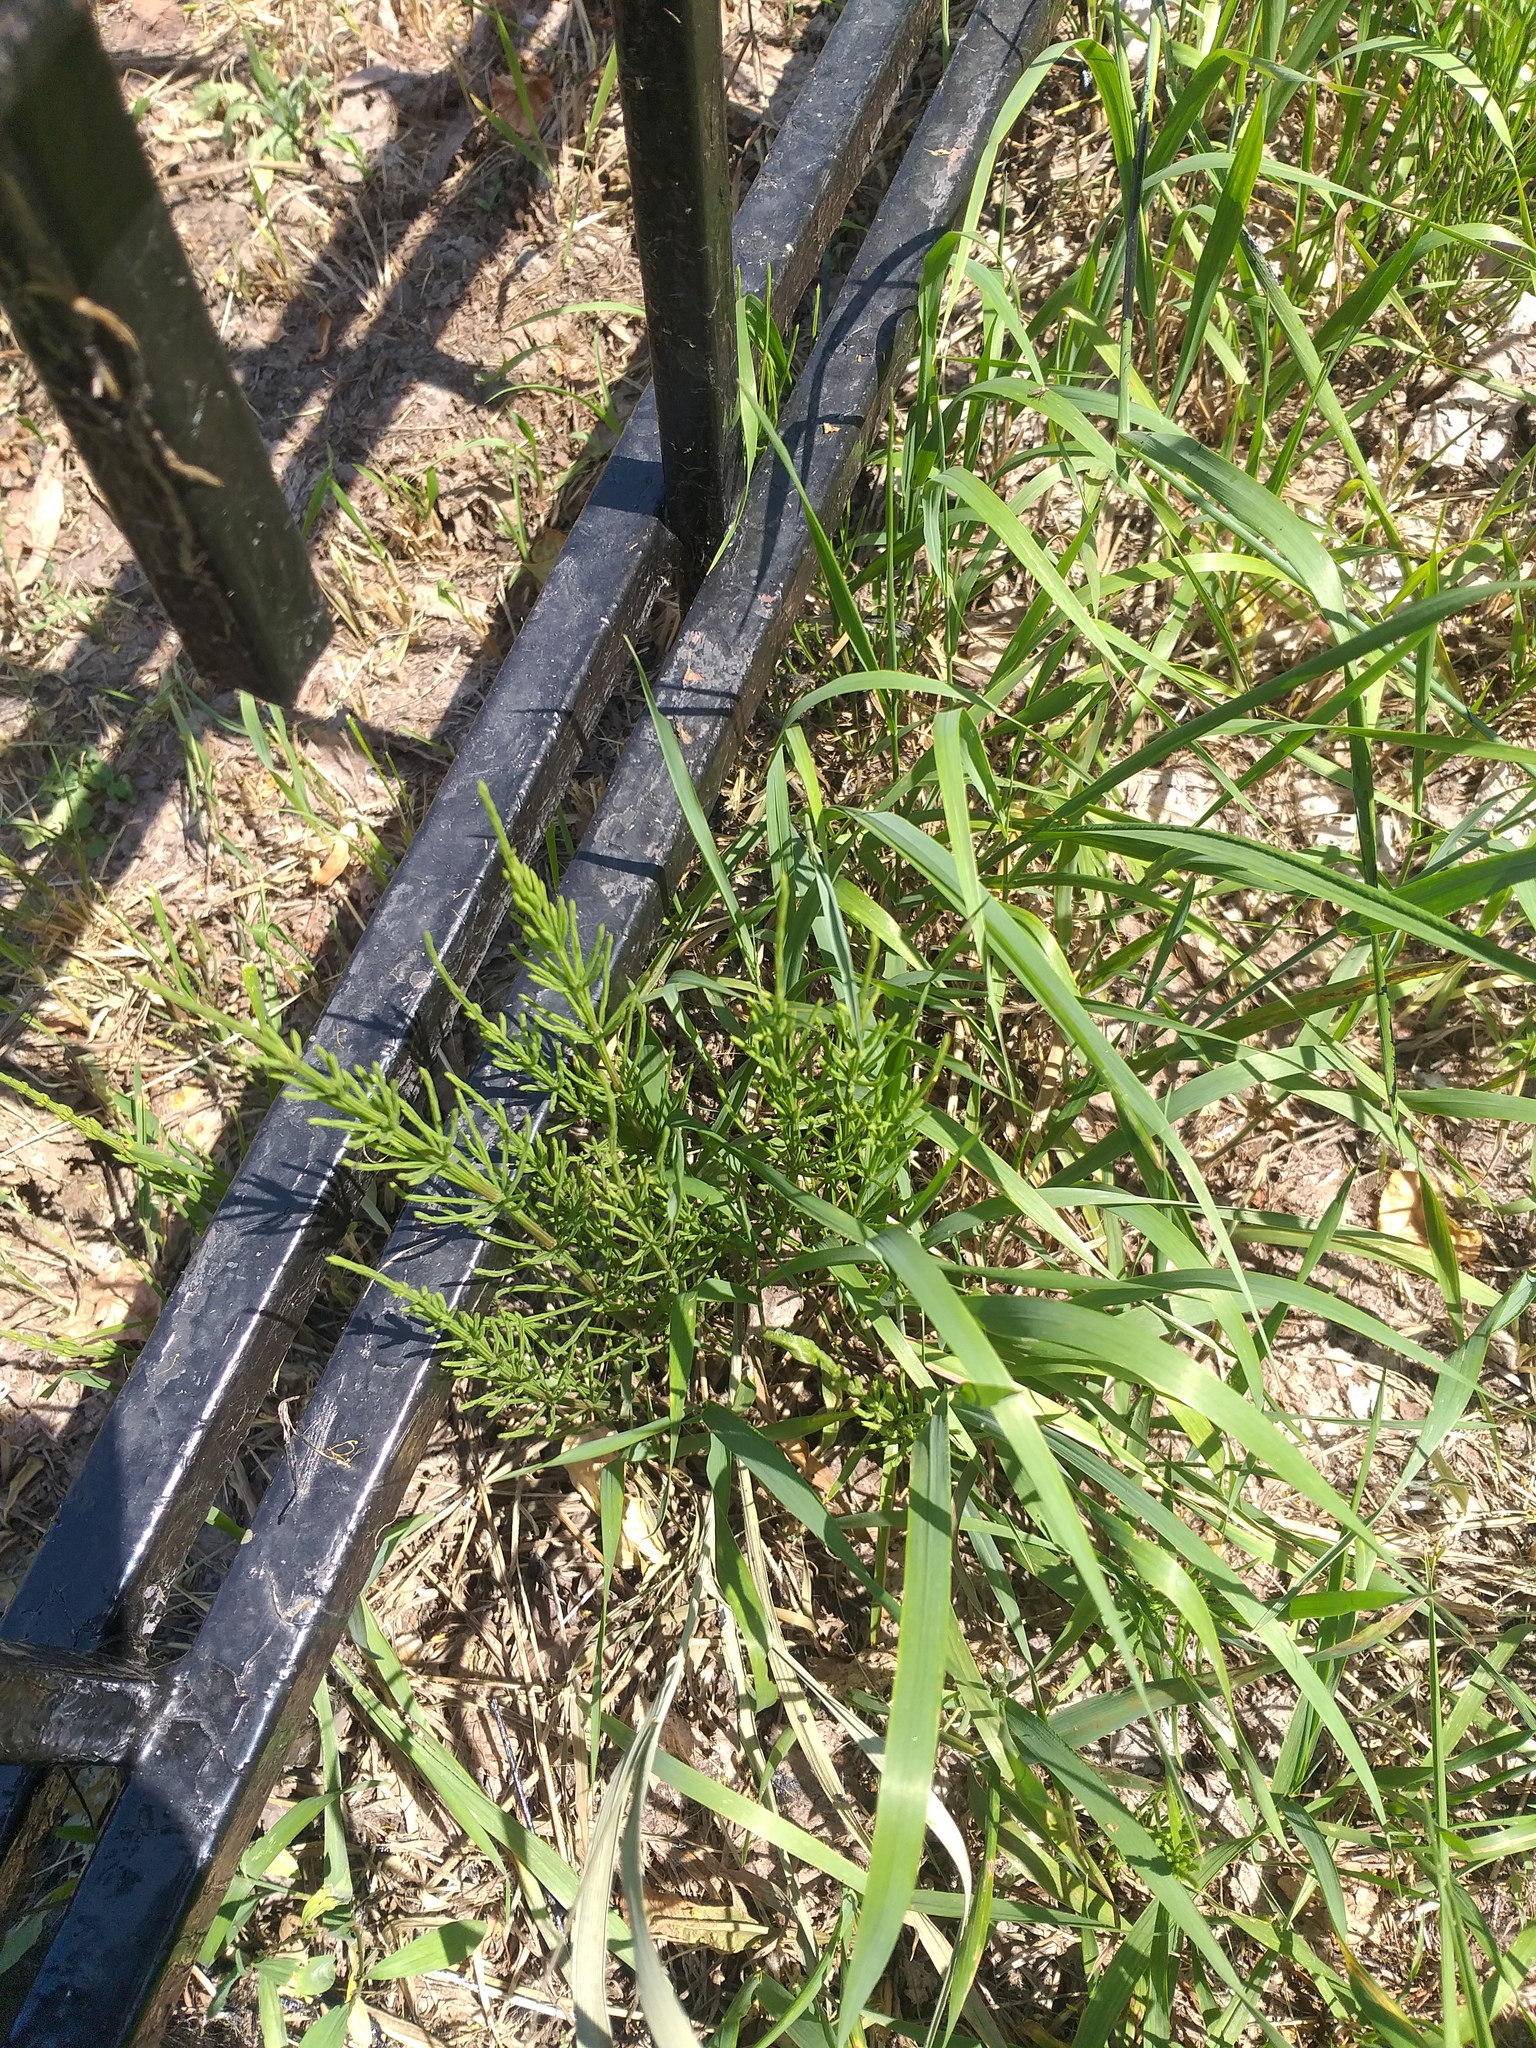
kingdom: Plantae
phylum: Tracheophyta
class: Polypodiopsida
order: Equisetales
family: Equisetaceae
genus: Equisetum
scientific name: Equisetum arvense
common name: Field horsetail
